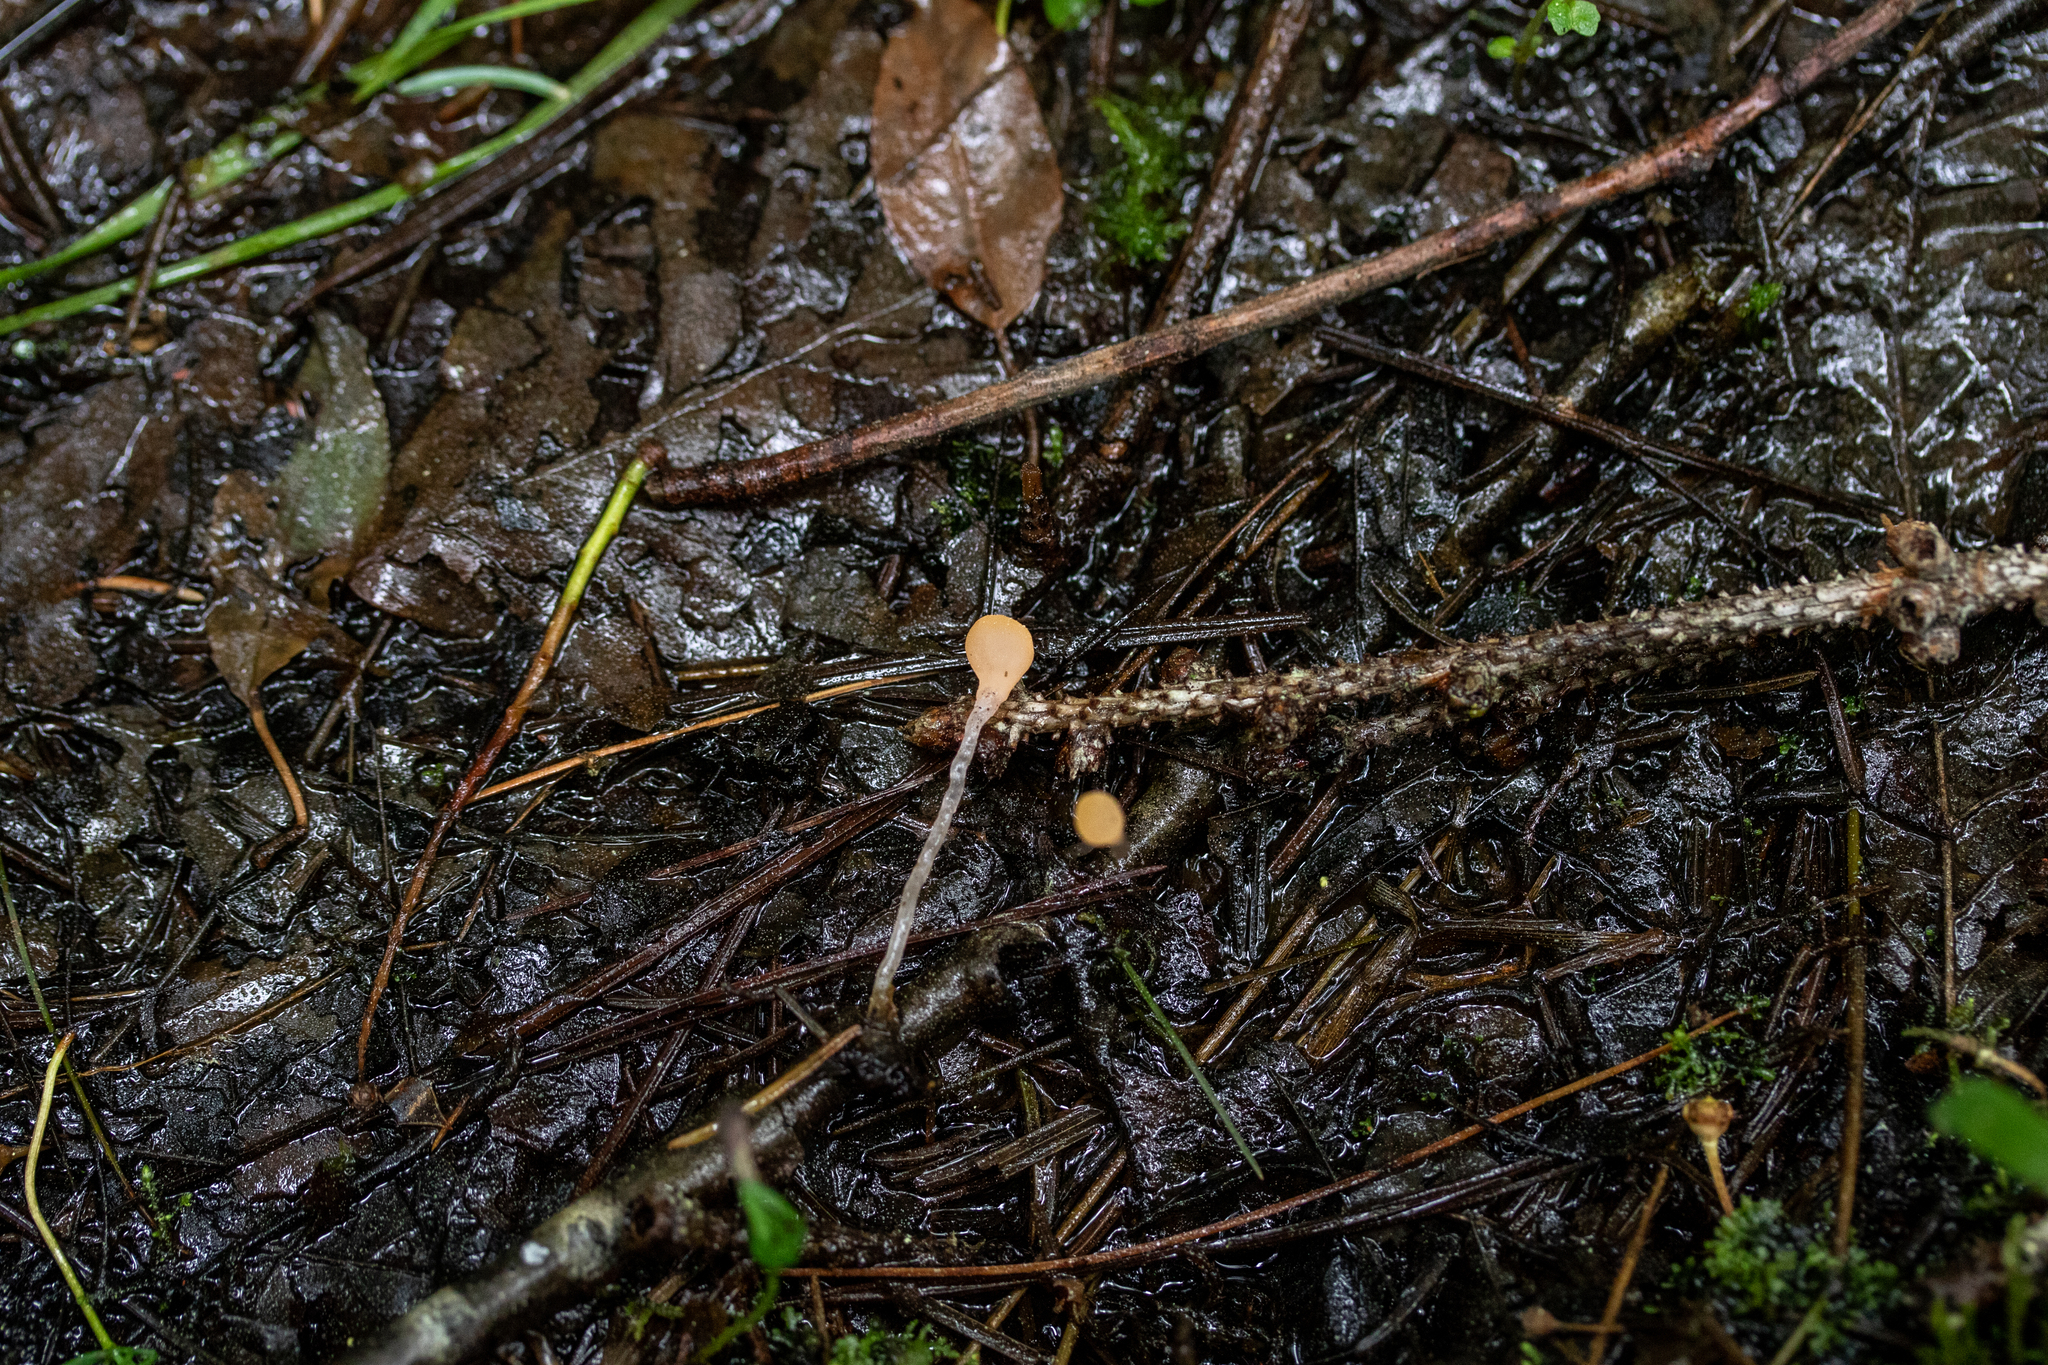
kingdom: Fungi
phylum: Ascomycota
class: Leotiomycetes
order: Helotiales
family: Sclerotiniaceae
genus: Mitrula
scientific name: Mitrula elegans
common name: Swamp beacon
